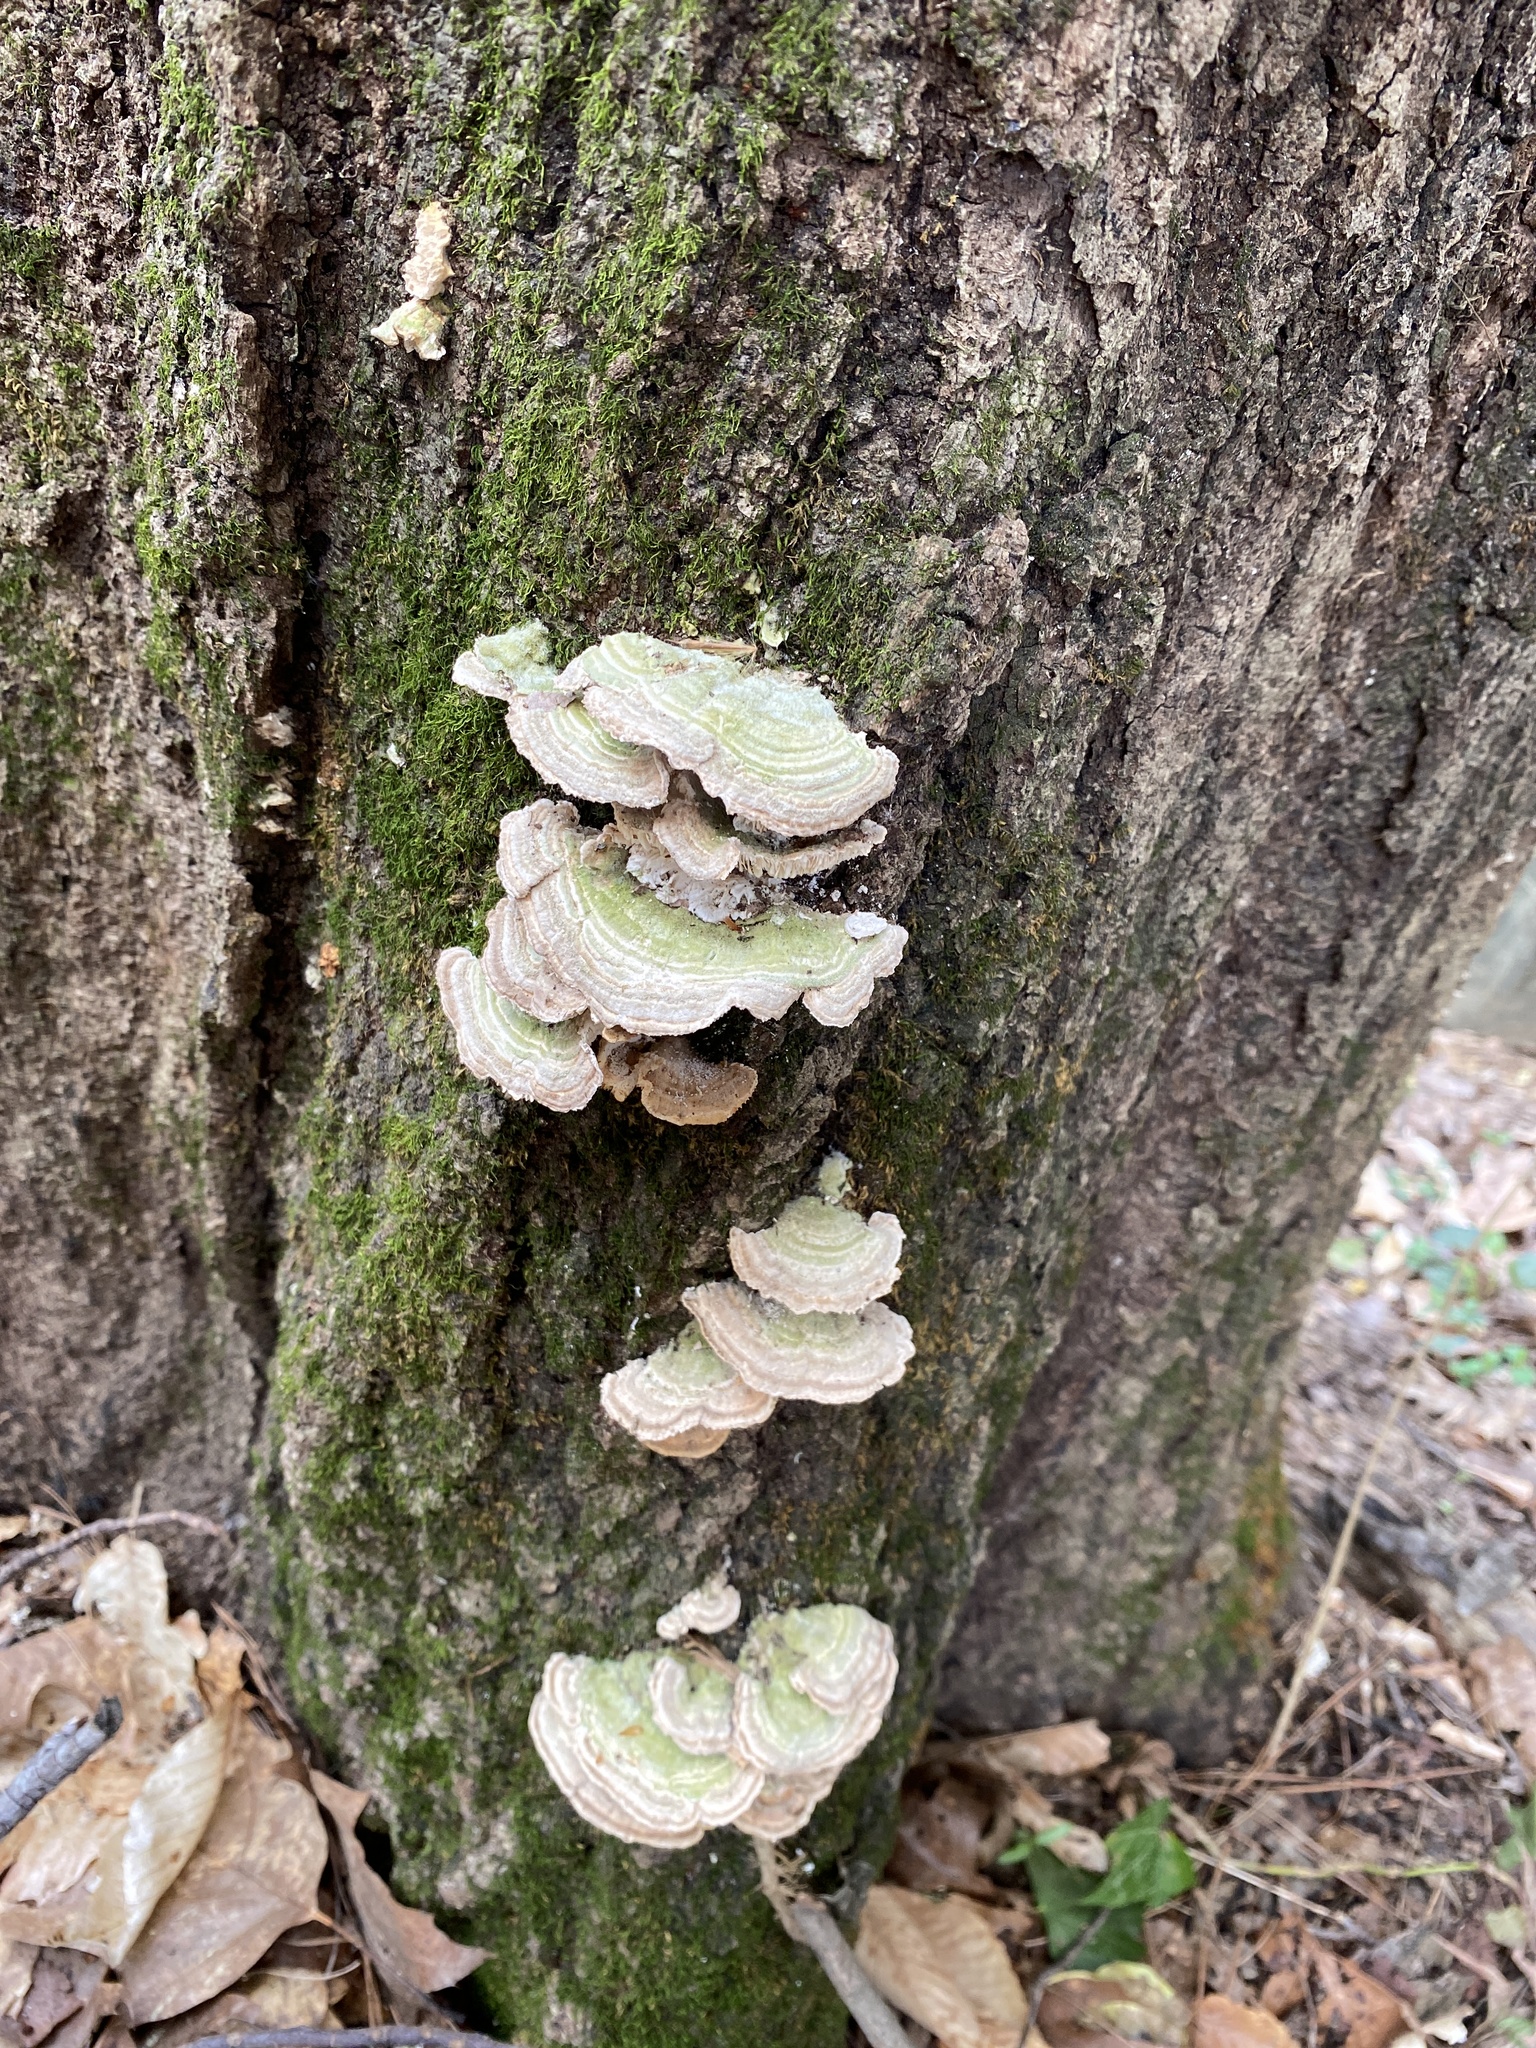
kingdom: Fungi
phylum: Basidiomycota
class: Agaricomycetes
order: Polyporales
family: Polyporaceae
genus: Lenzites
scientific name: Lenzites betulinus
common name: Birch mazegill
